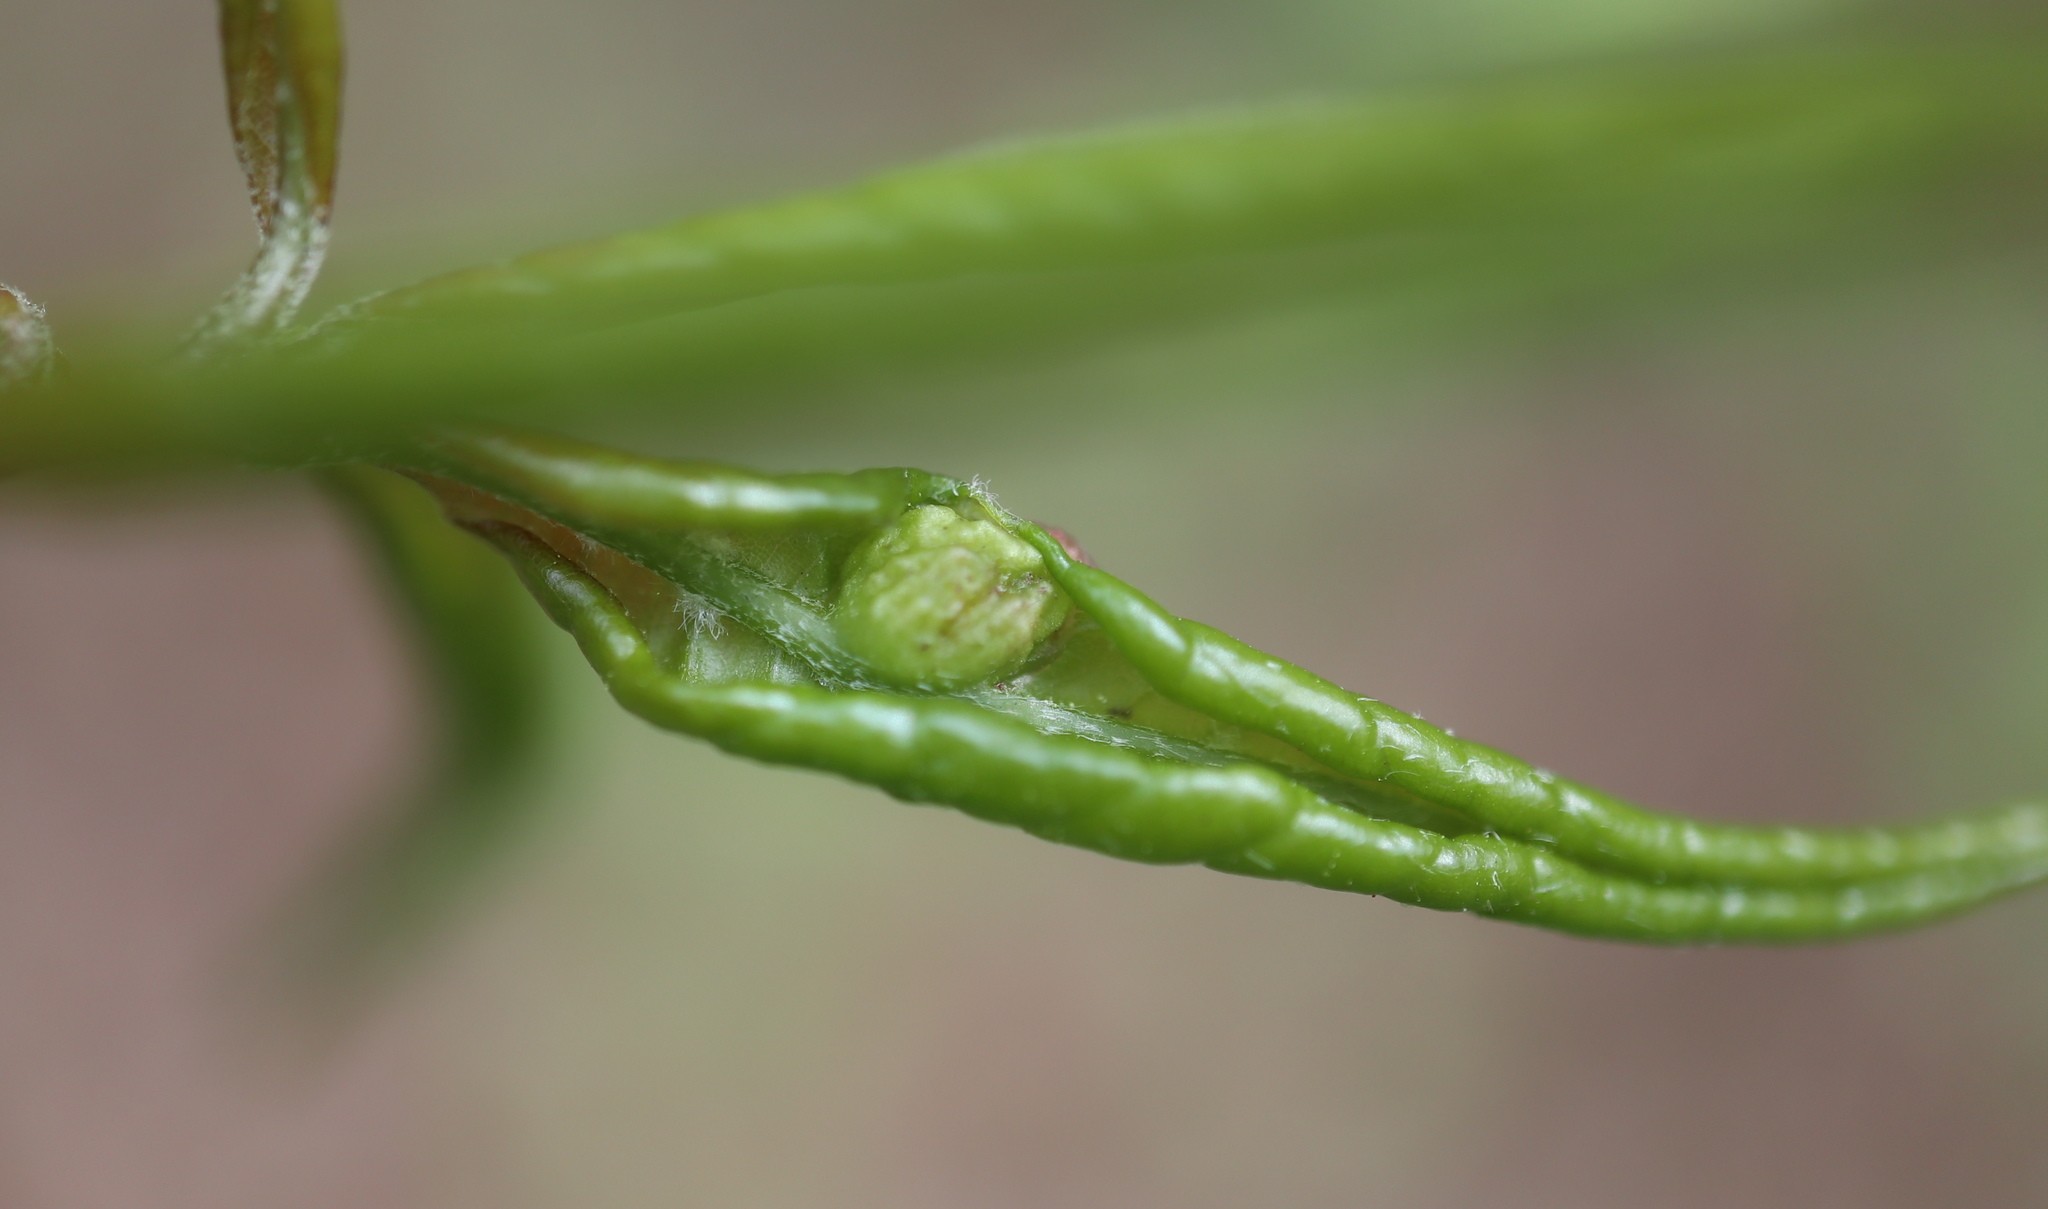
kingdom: Animalia
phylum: Arthropoda
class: Insecta
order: Hymenoptera
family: Cynipidae
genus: Dryocosmus
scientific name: Dryocosmus
